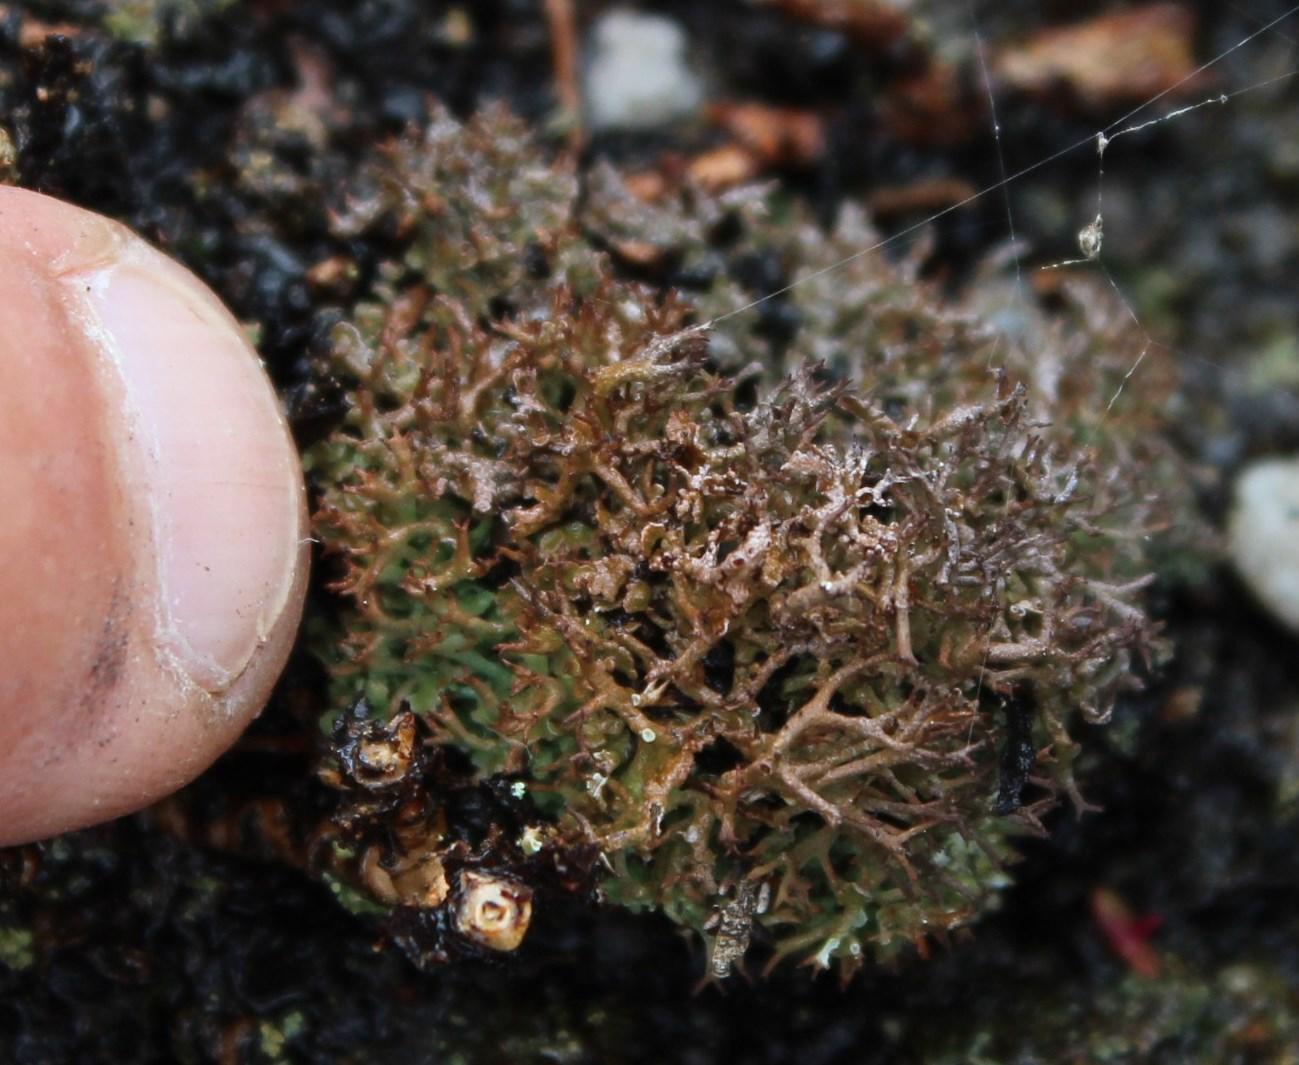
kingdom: Fungi
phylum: Ascomycota
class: Lecanoromycetes
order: Lecanorales
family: Cladoniaceae
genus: Cladonia
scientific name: Cladonia
